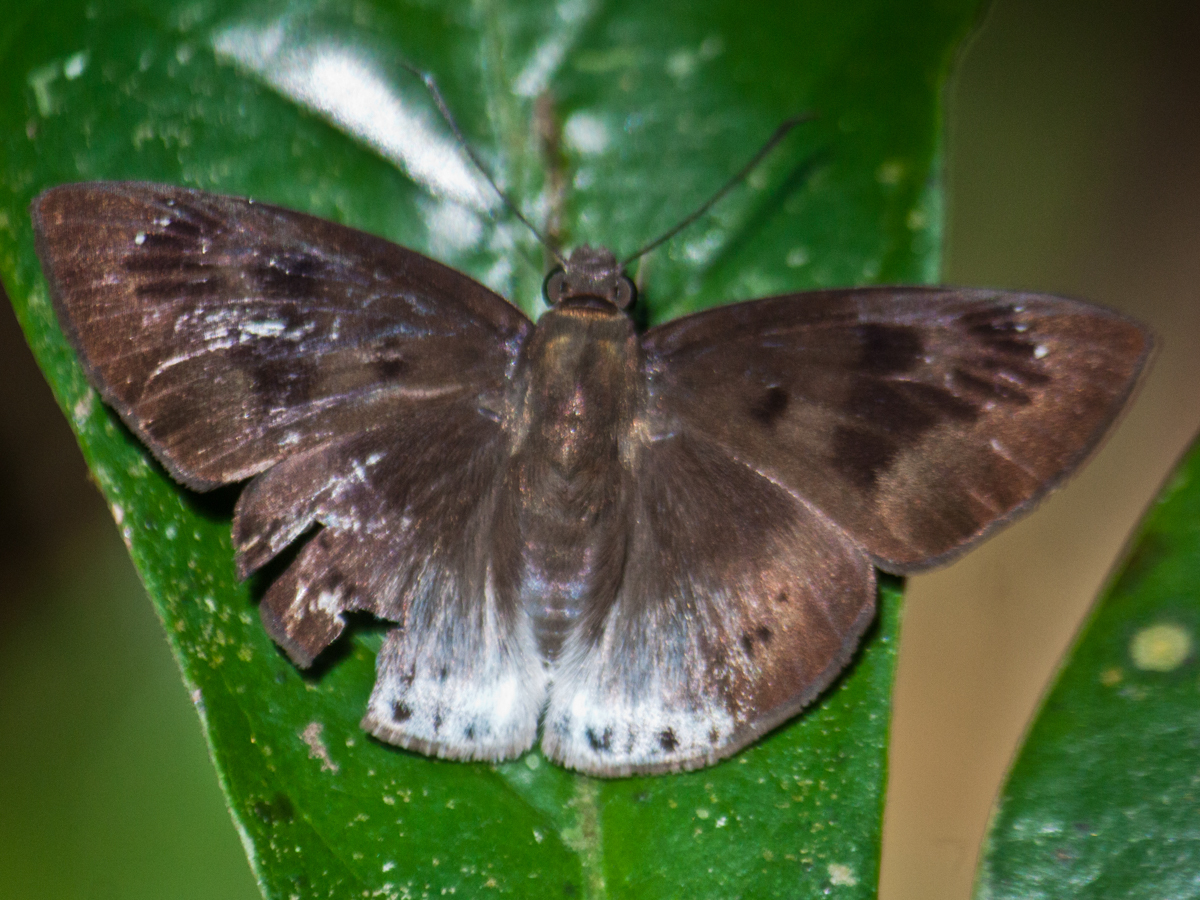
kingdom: Animalia
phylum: Arthropoda
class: Insecta
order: Lepidoptera
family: Hesperiidae
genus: Tagiades
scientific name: Tagiades gana
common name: Suffused snow flat
